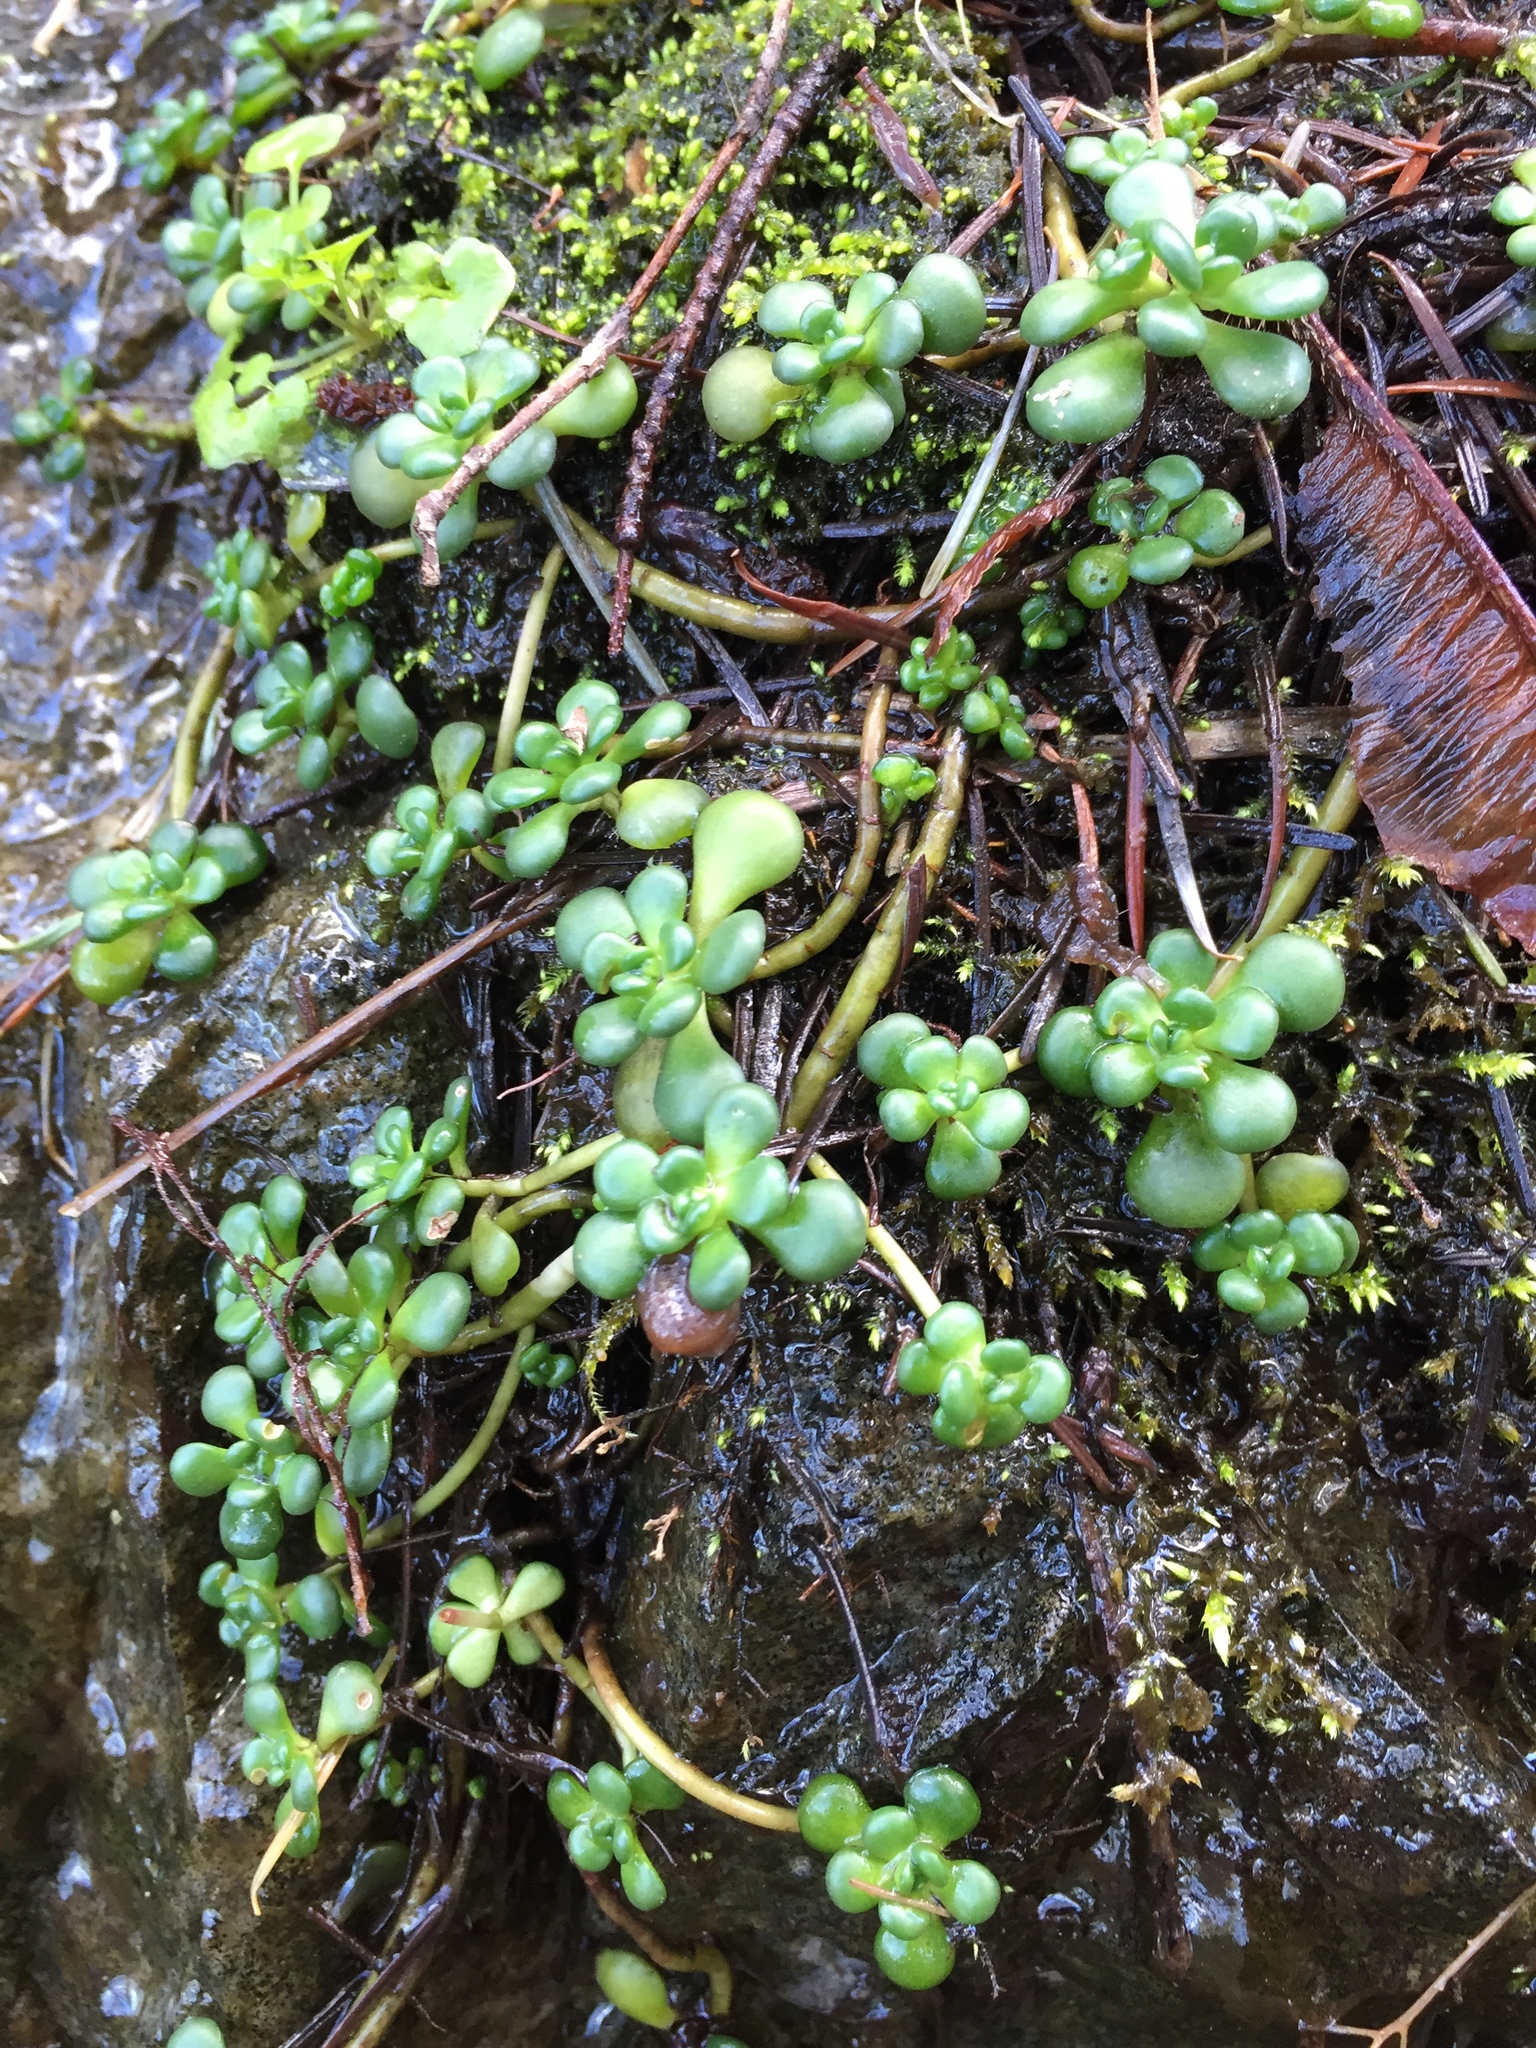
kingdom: Plantae
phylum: Tracheophyta
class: Magnoliopsida
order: Saxifragales
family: Crassulaceae
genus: Sedum
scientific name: Sedum oreganum
